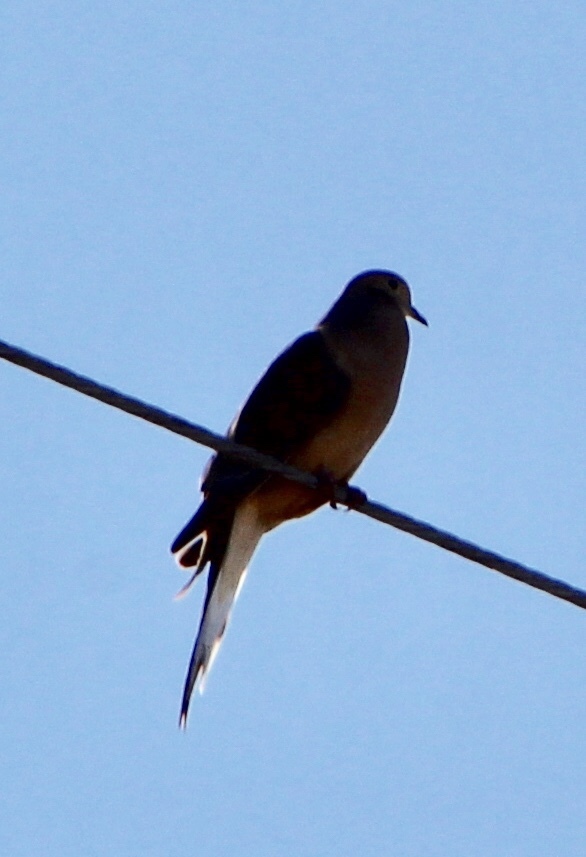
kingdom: Animalia
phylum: Chordata
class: Aves
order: Columbiformes
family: Columbidae
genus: Zenaida
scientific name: Zenaida macroura
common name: Mourning dove
